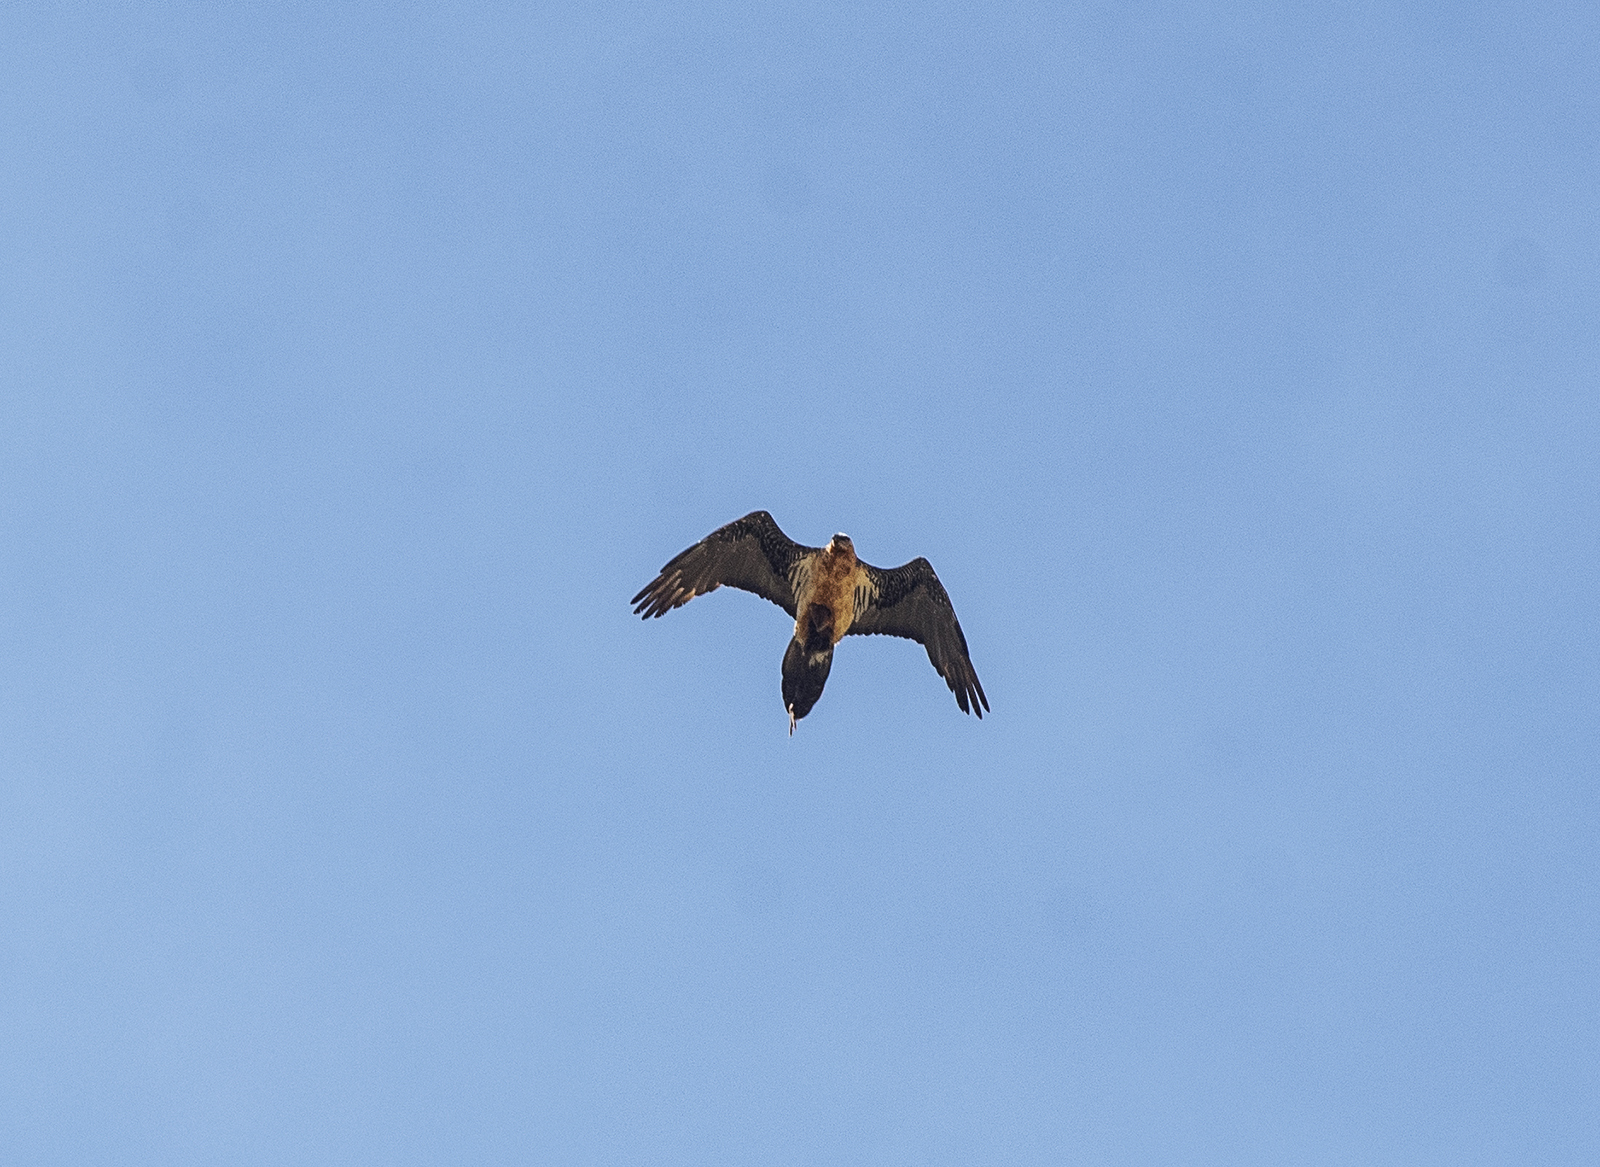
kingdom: Animalia
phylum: Chordata
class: Aves
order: Accipitriformes
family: Accipitridae
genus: Gypaetus
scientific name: Gypaetus barbatus
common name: Bearded vulture
